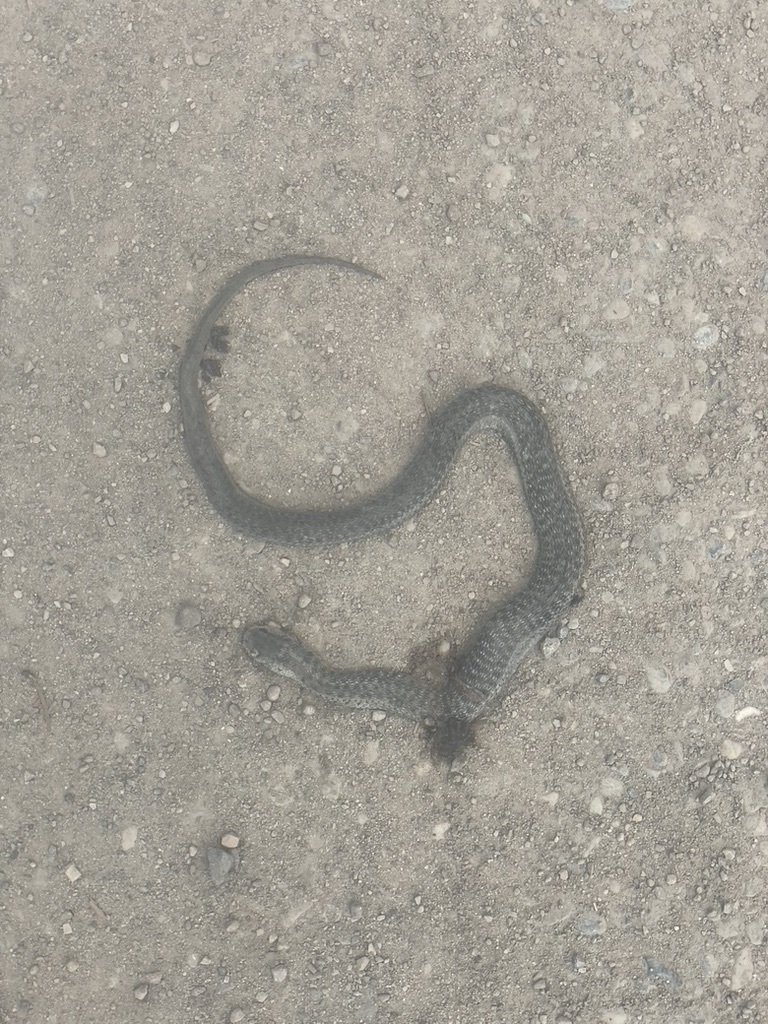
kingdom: Animalia
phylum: Chordata
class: Squamata
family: Colubridae
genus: Thamnophis
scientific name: Thamnophis elegans
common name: Western terrestrial garter snake
